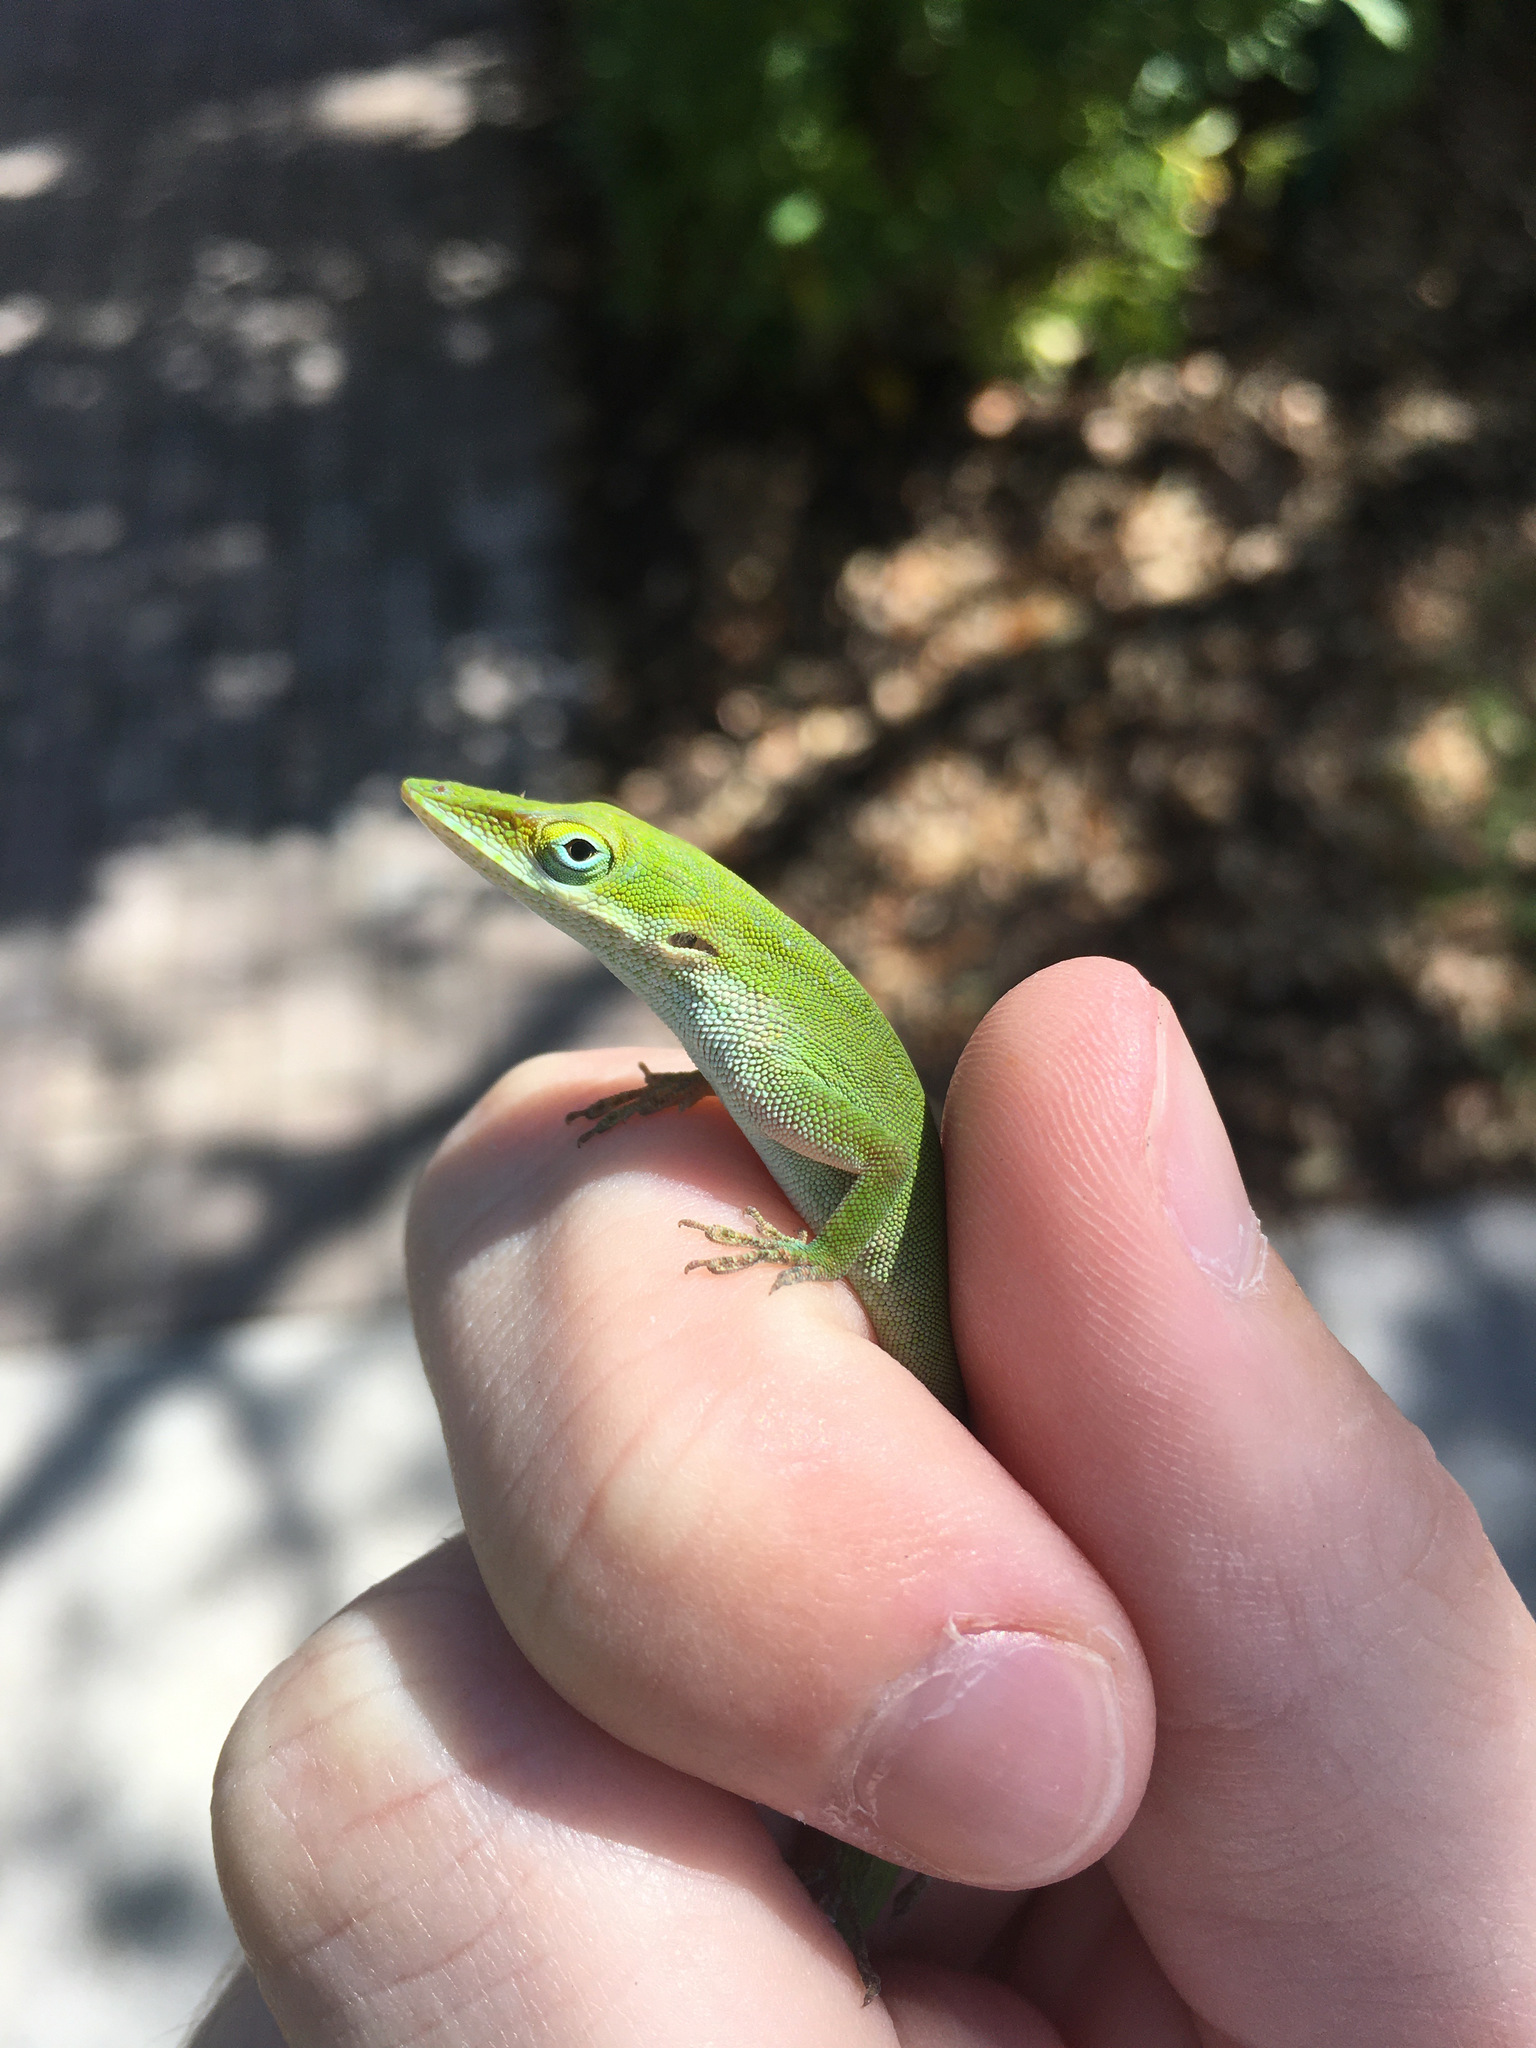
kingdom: Animalia
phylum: Chordata
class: Squamata
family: Dactyloidae
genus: Anolis
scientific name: Anolis allisoni
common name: Allison's anole
